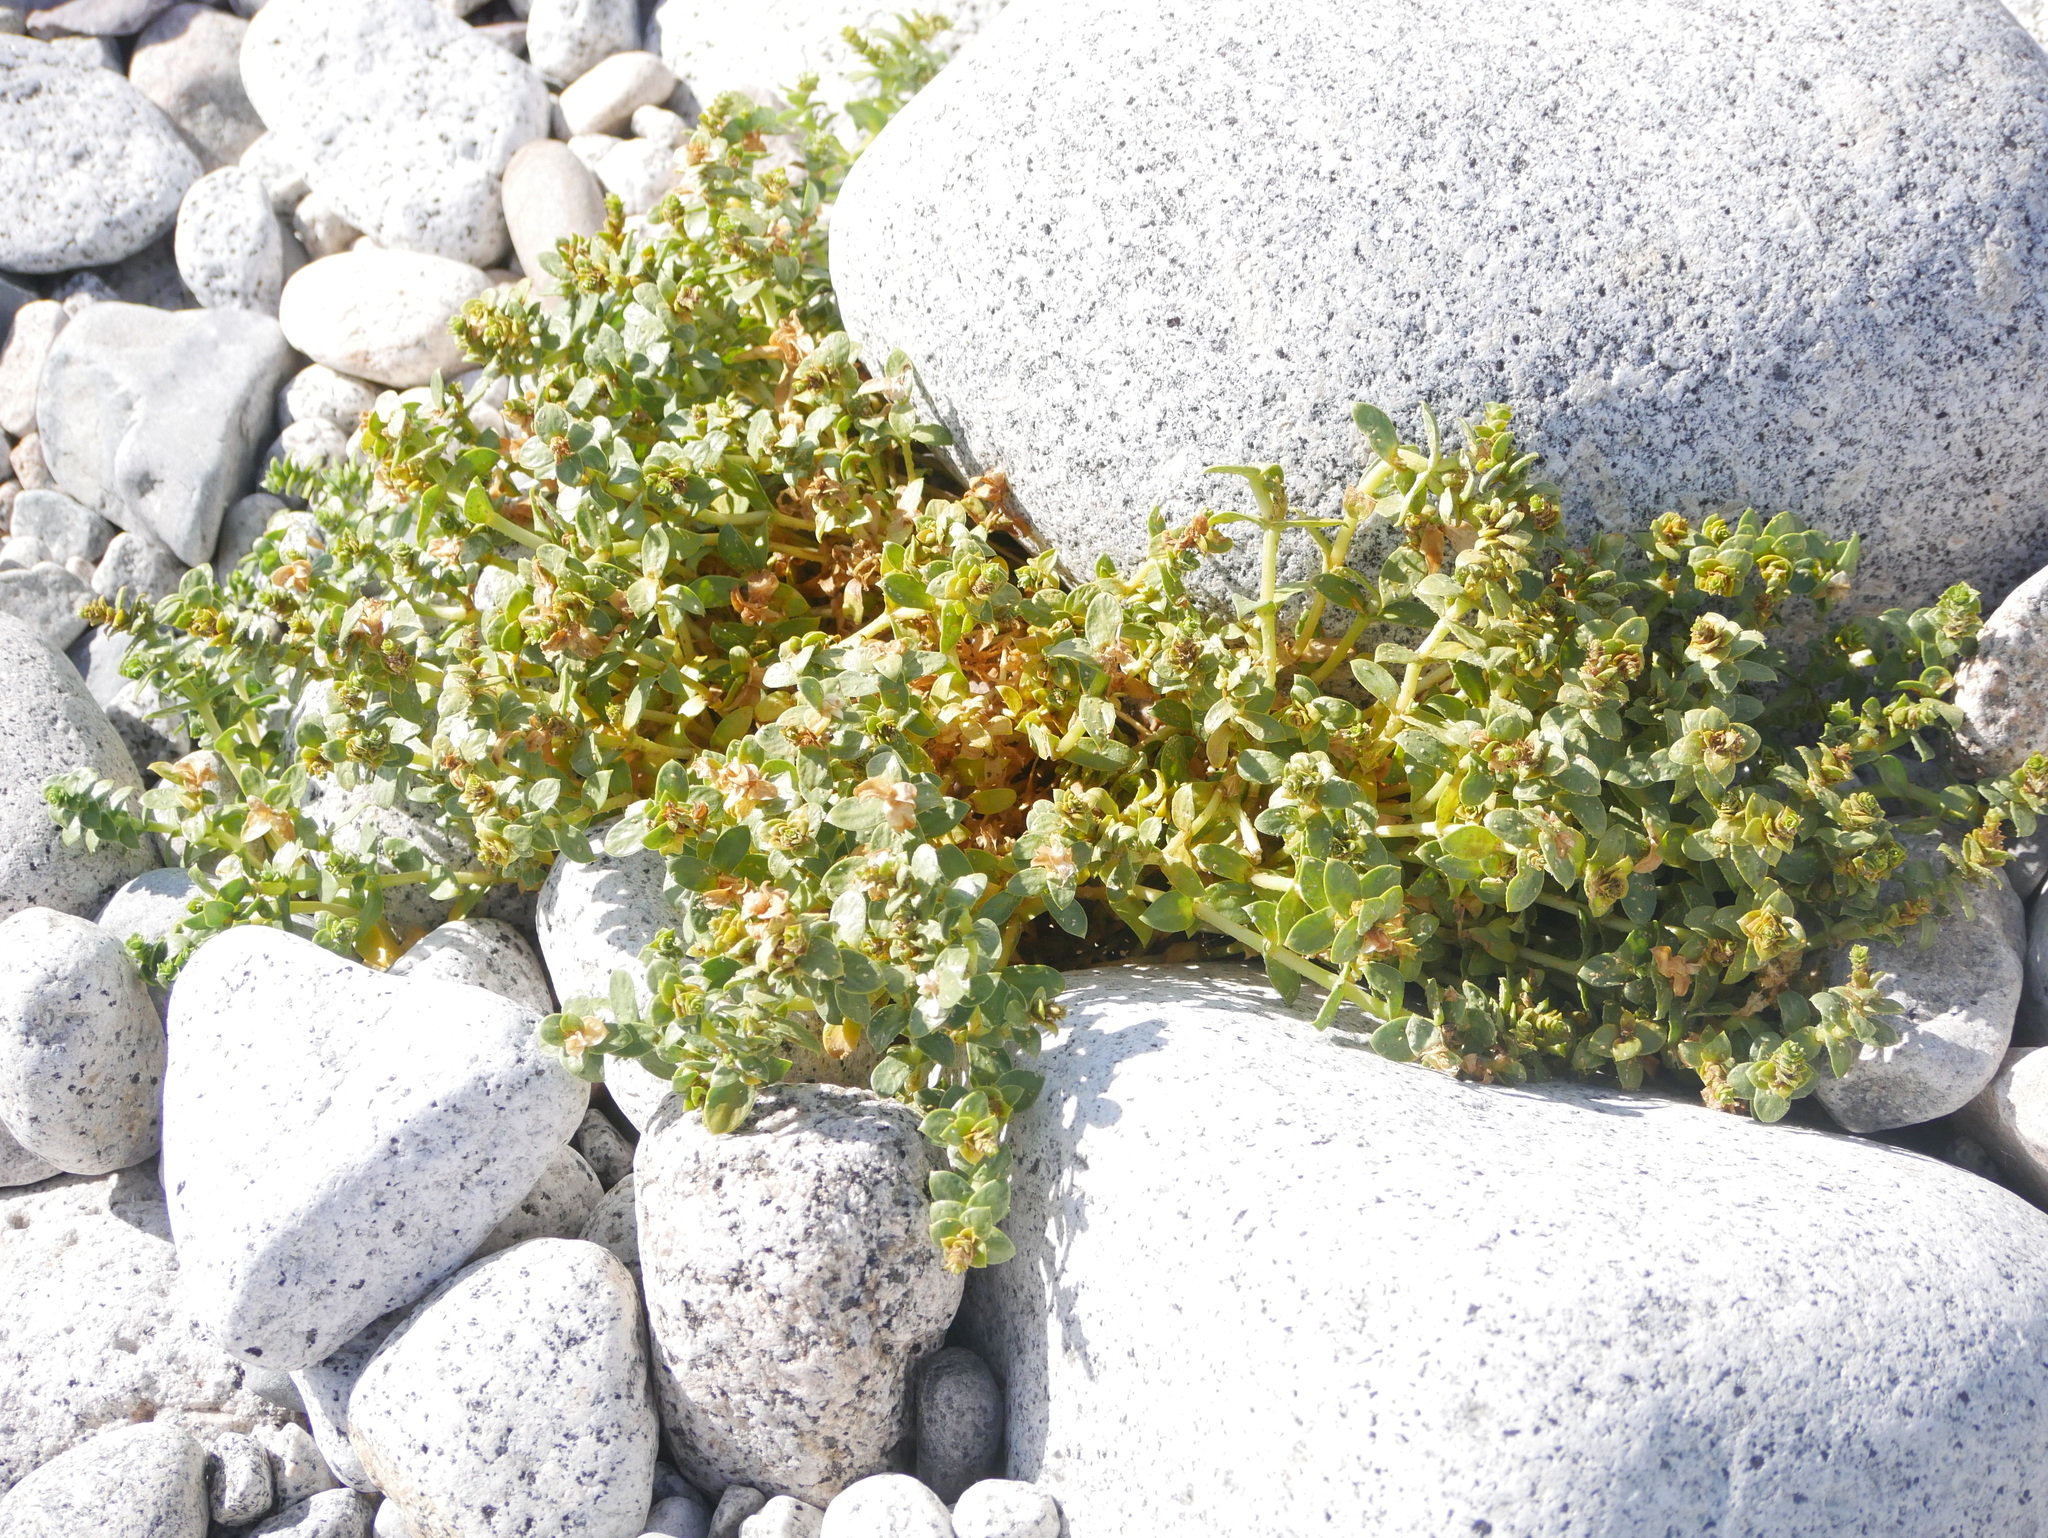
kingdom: Plantae
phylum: Tracheophyta
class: Magnoliopsida
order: Caryophyllales
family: Caryophyllaceae
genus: Honckenya
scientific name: Honckenya peploides
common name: Sea sandwort
